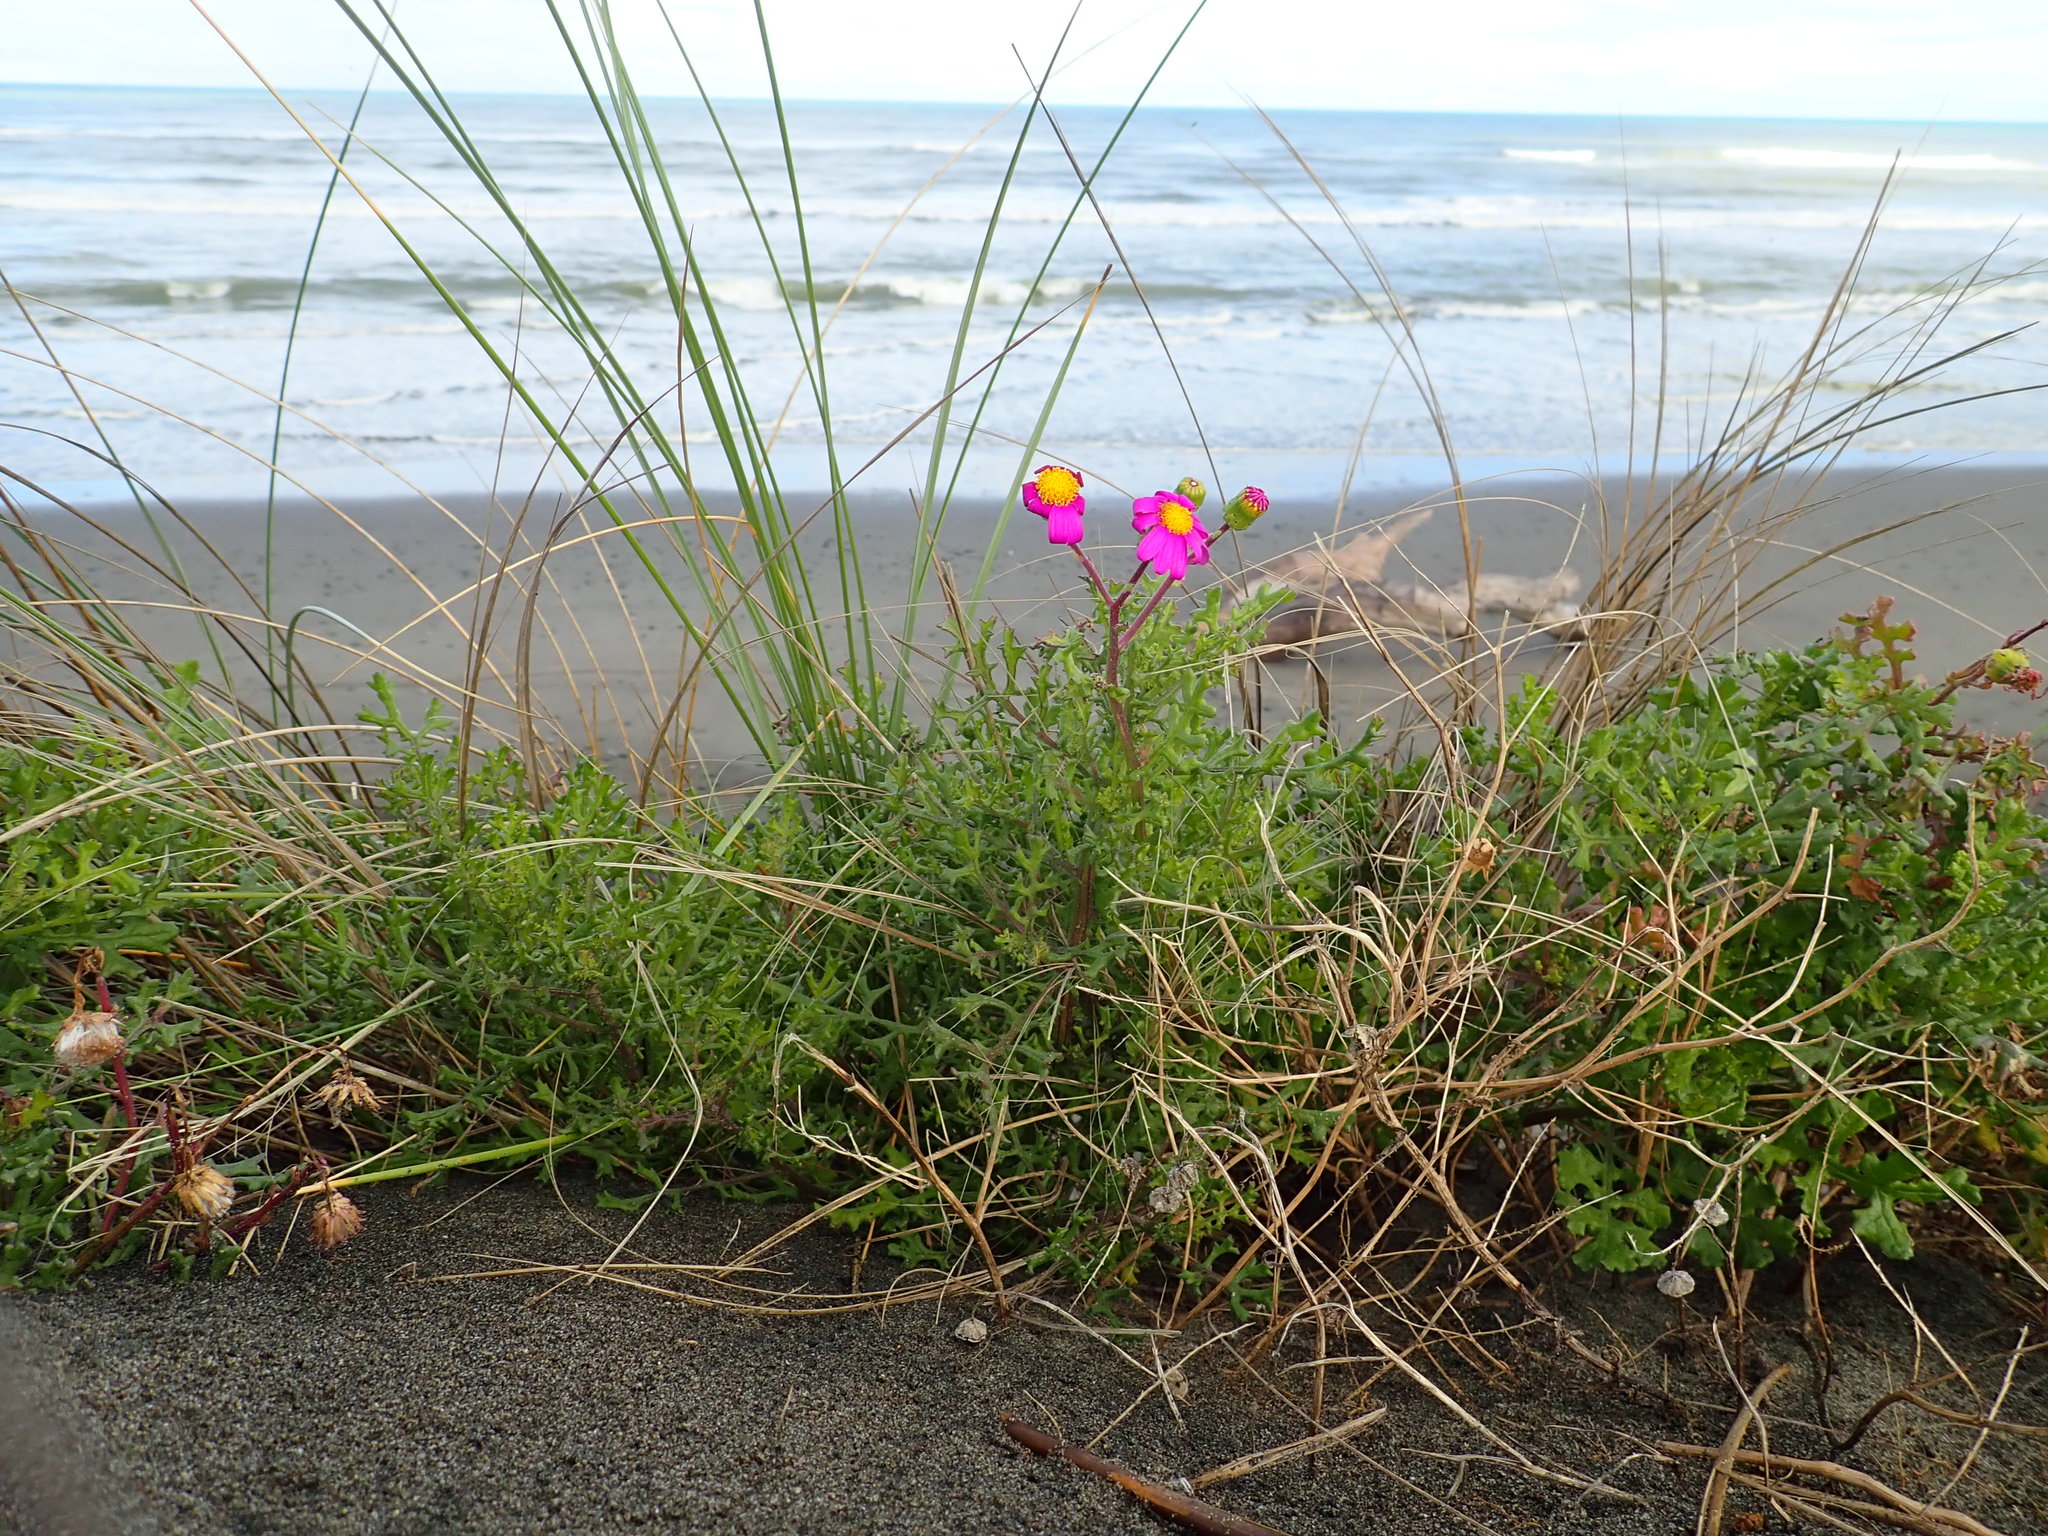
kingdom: Plantae
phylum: Tracheophyta
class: Magnoliopsida
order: Asterales
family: Asteraceae
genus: Senecio
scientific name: Senecio elegans
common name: Purple groundsel
